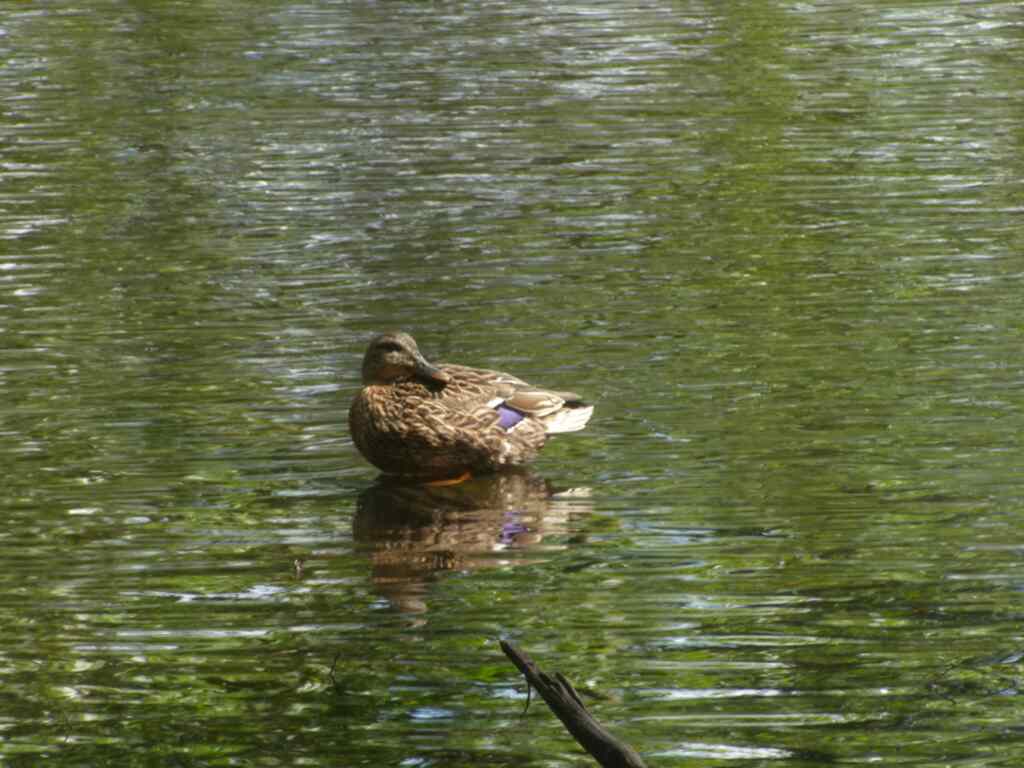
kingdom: Animalia
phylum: Chordata
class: Aves
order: Anseriformes
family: Anatidae
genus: Anas
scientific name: Anas platyrhynchos
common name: Mallard
